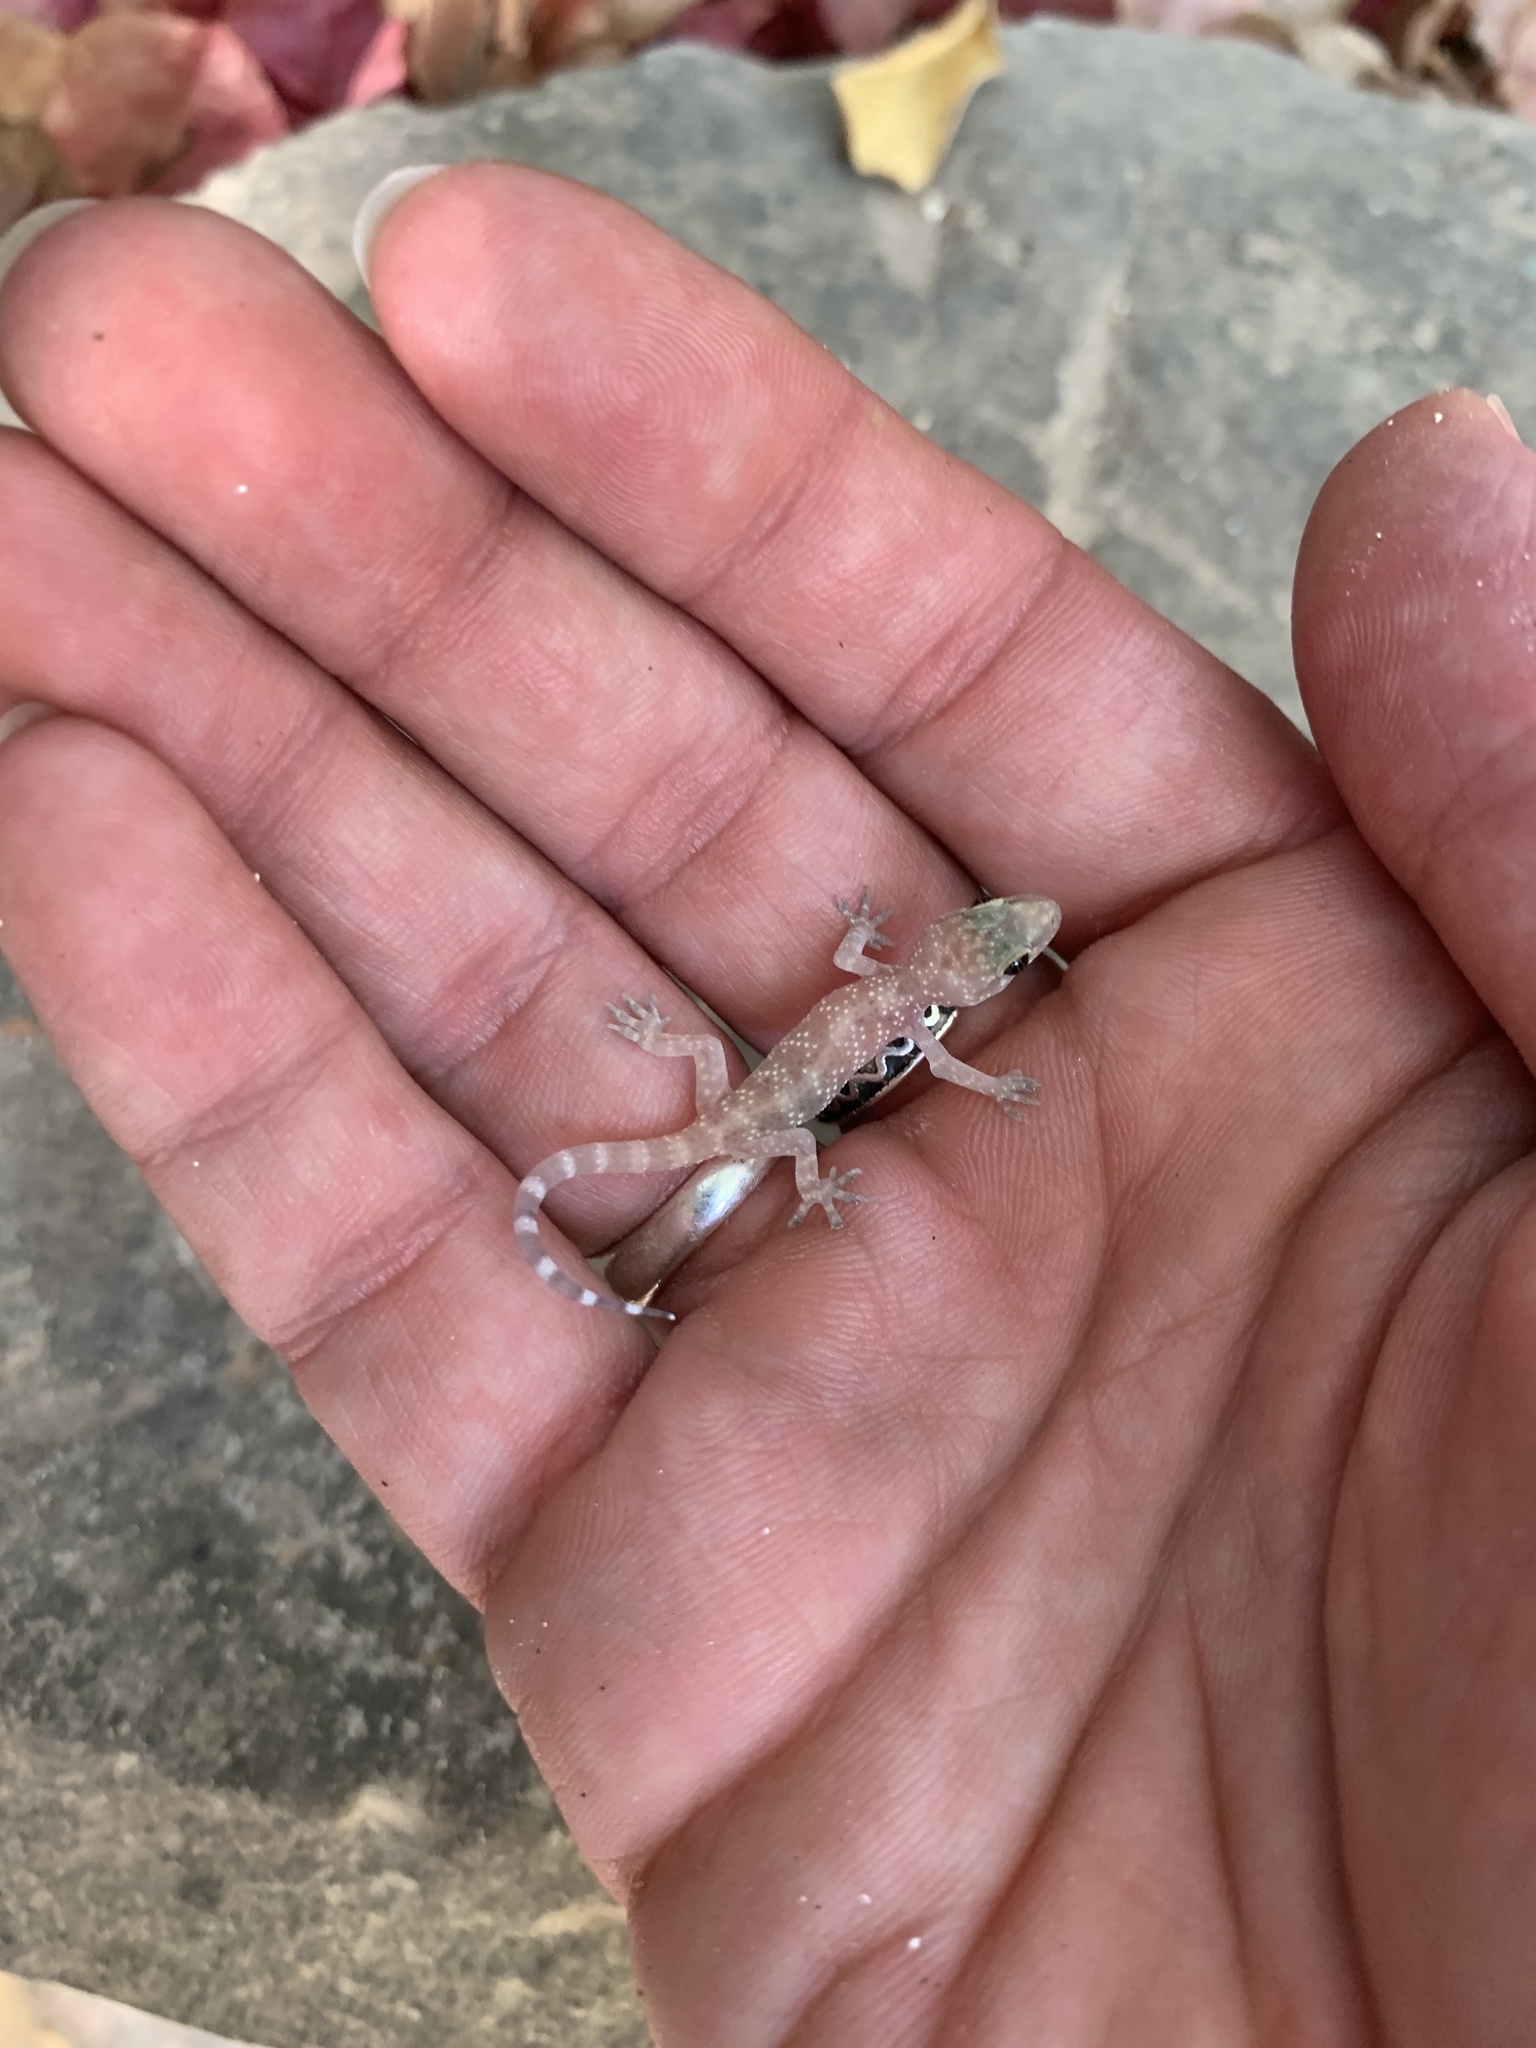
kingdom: Animalia
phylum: Chordata
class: Squamata
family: Gekkonidae
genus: Hemidactylus
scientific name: Hemidactylus turcicus
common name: Turkish gecko
